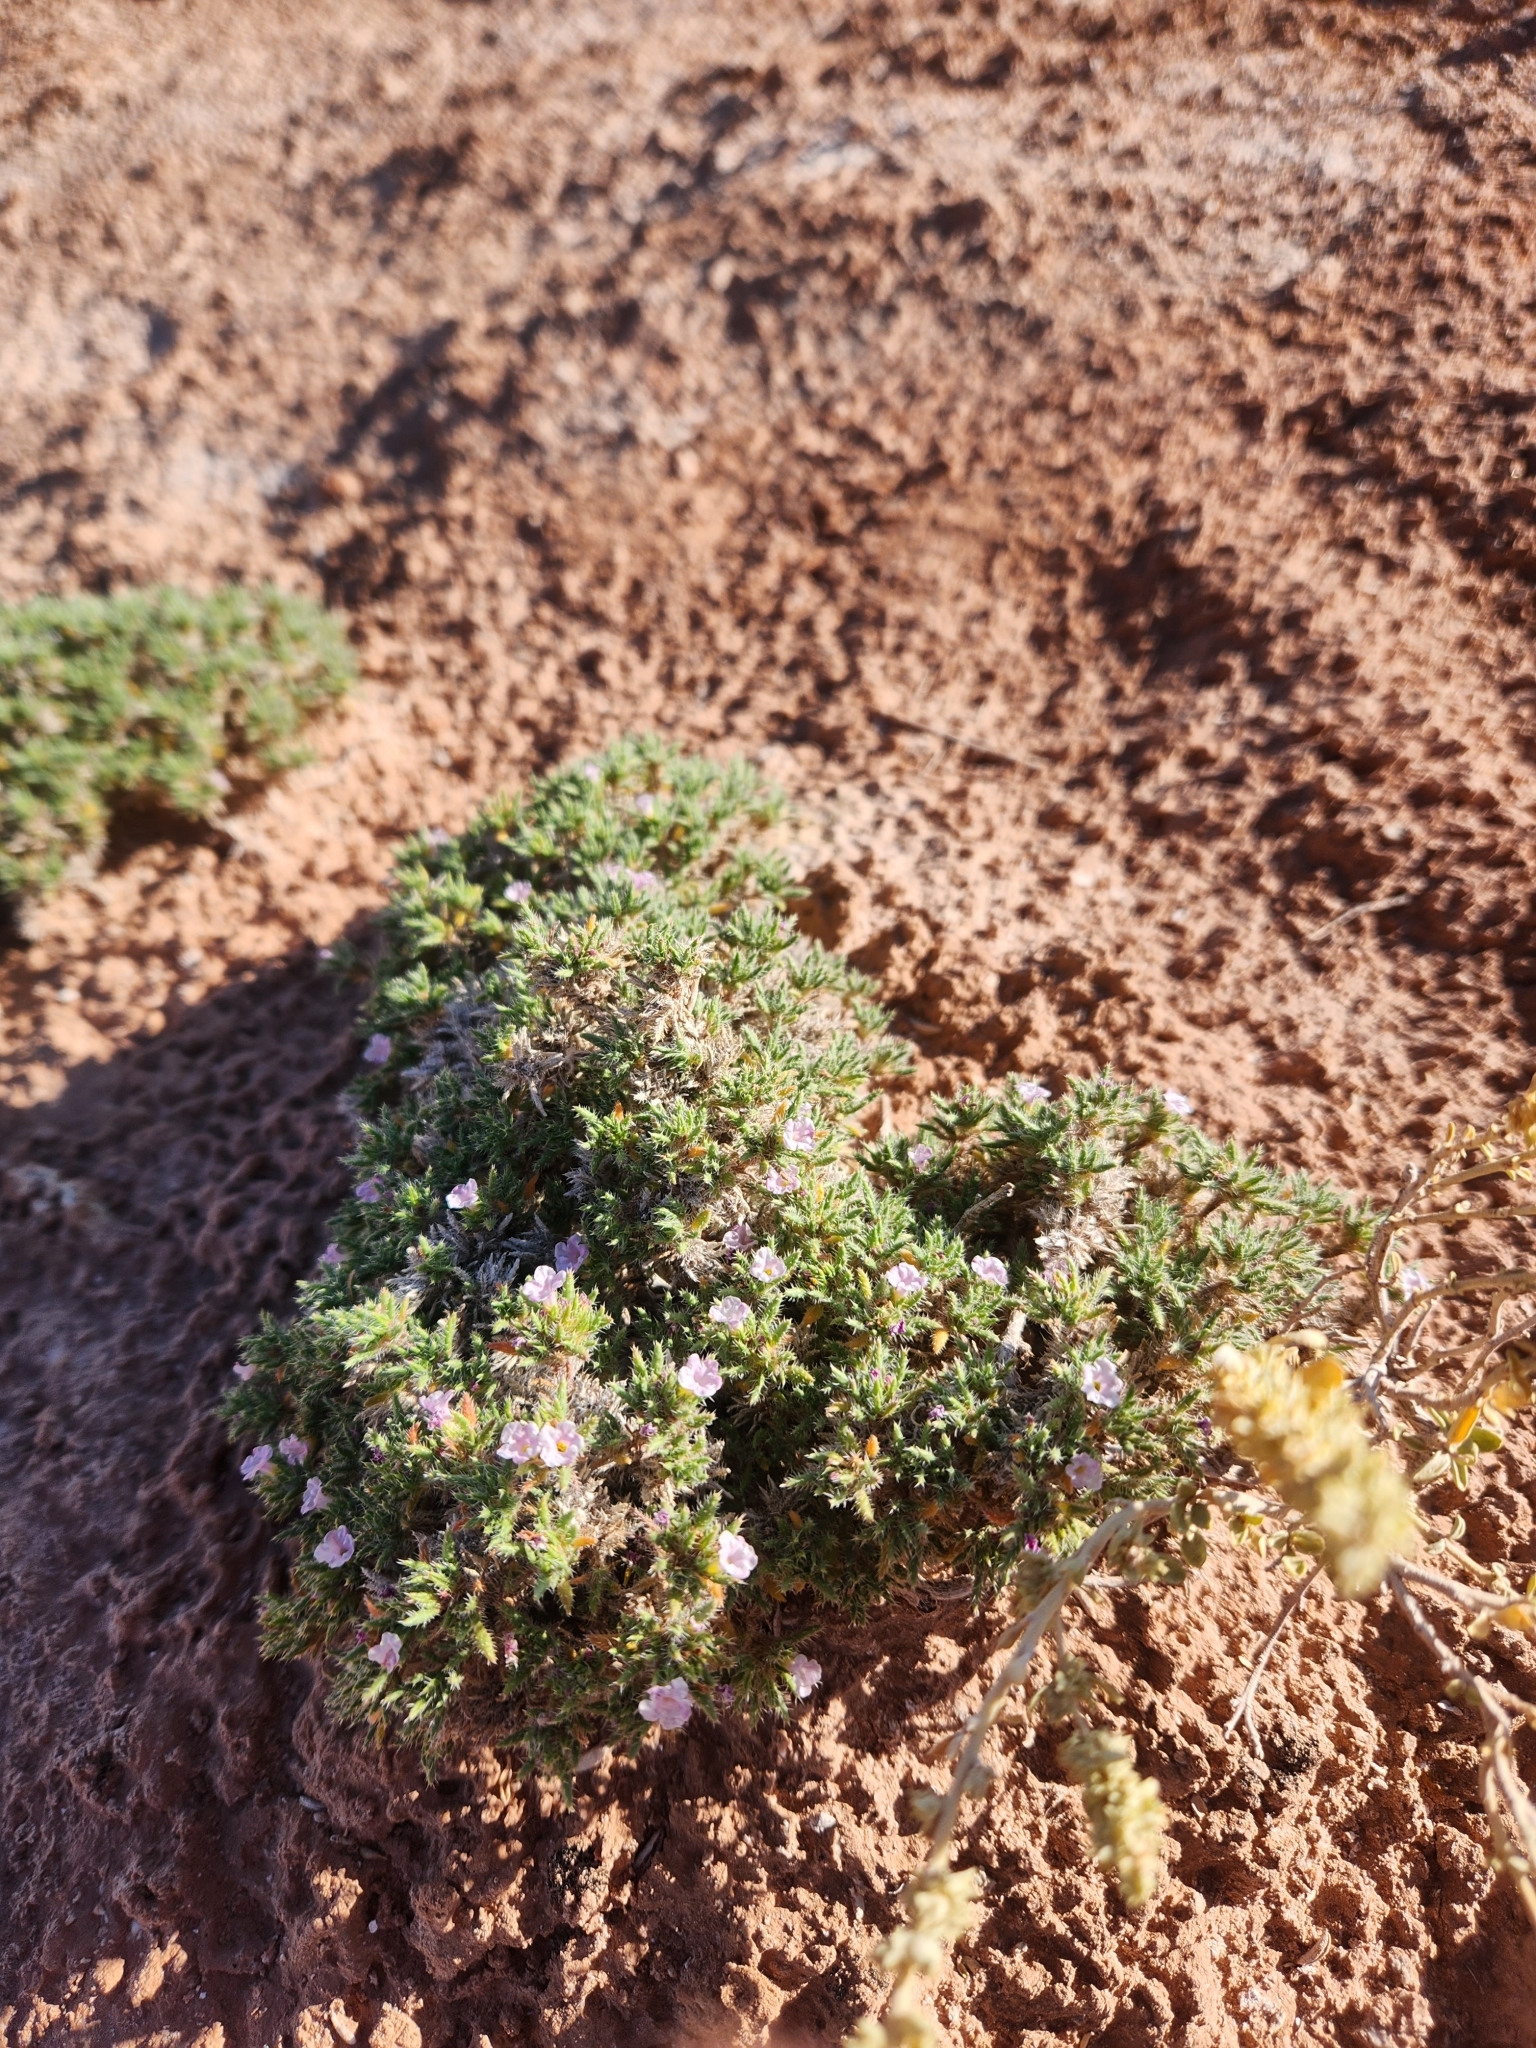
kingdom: Plantae
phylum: Tracheophyta
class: Magnoliopsida
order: Boraginales
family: Ehretiaceae
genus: Tiquilia
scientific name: Tiquilia latior
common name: Matted tiquilia
